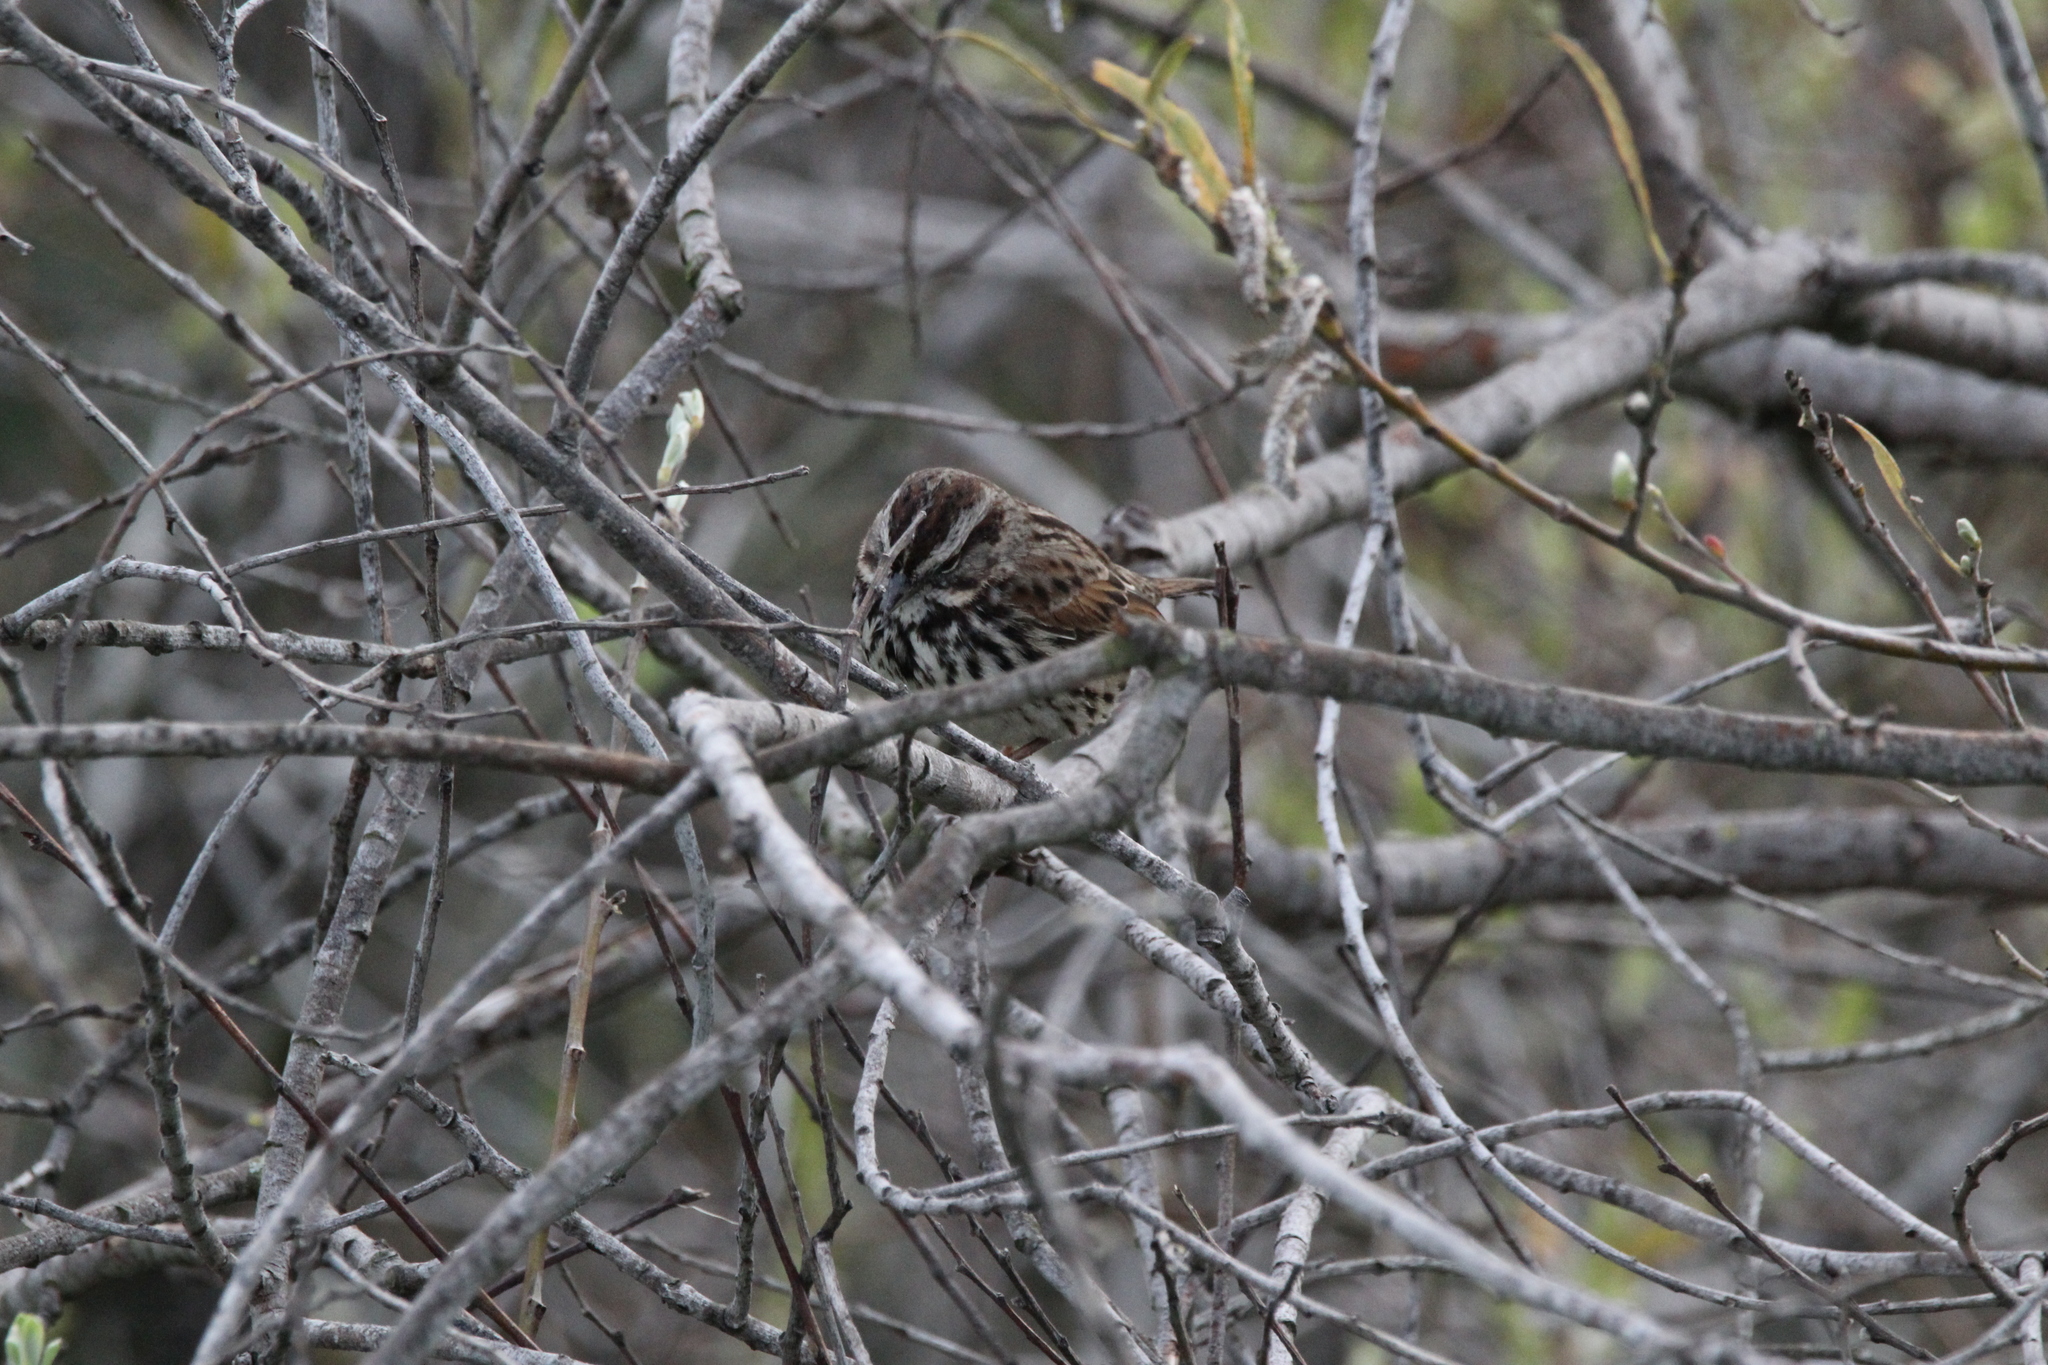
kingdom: Animalia
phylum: Chordata
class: Aves
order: Passeriformes
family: Passerellidae
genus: Melospiza
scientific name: Melospiza melodia
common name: Song sparrow
